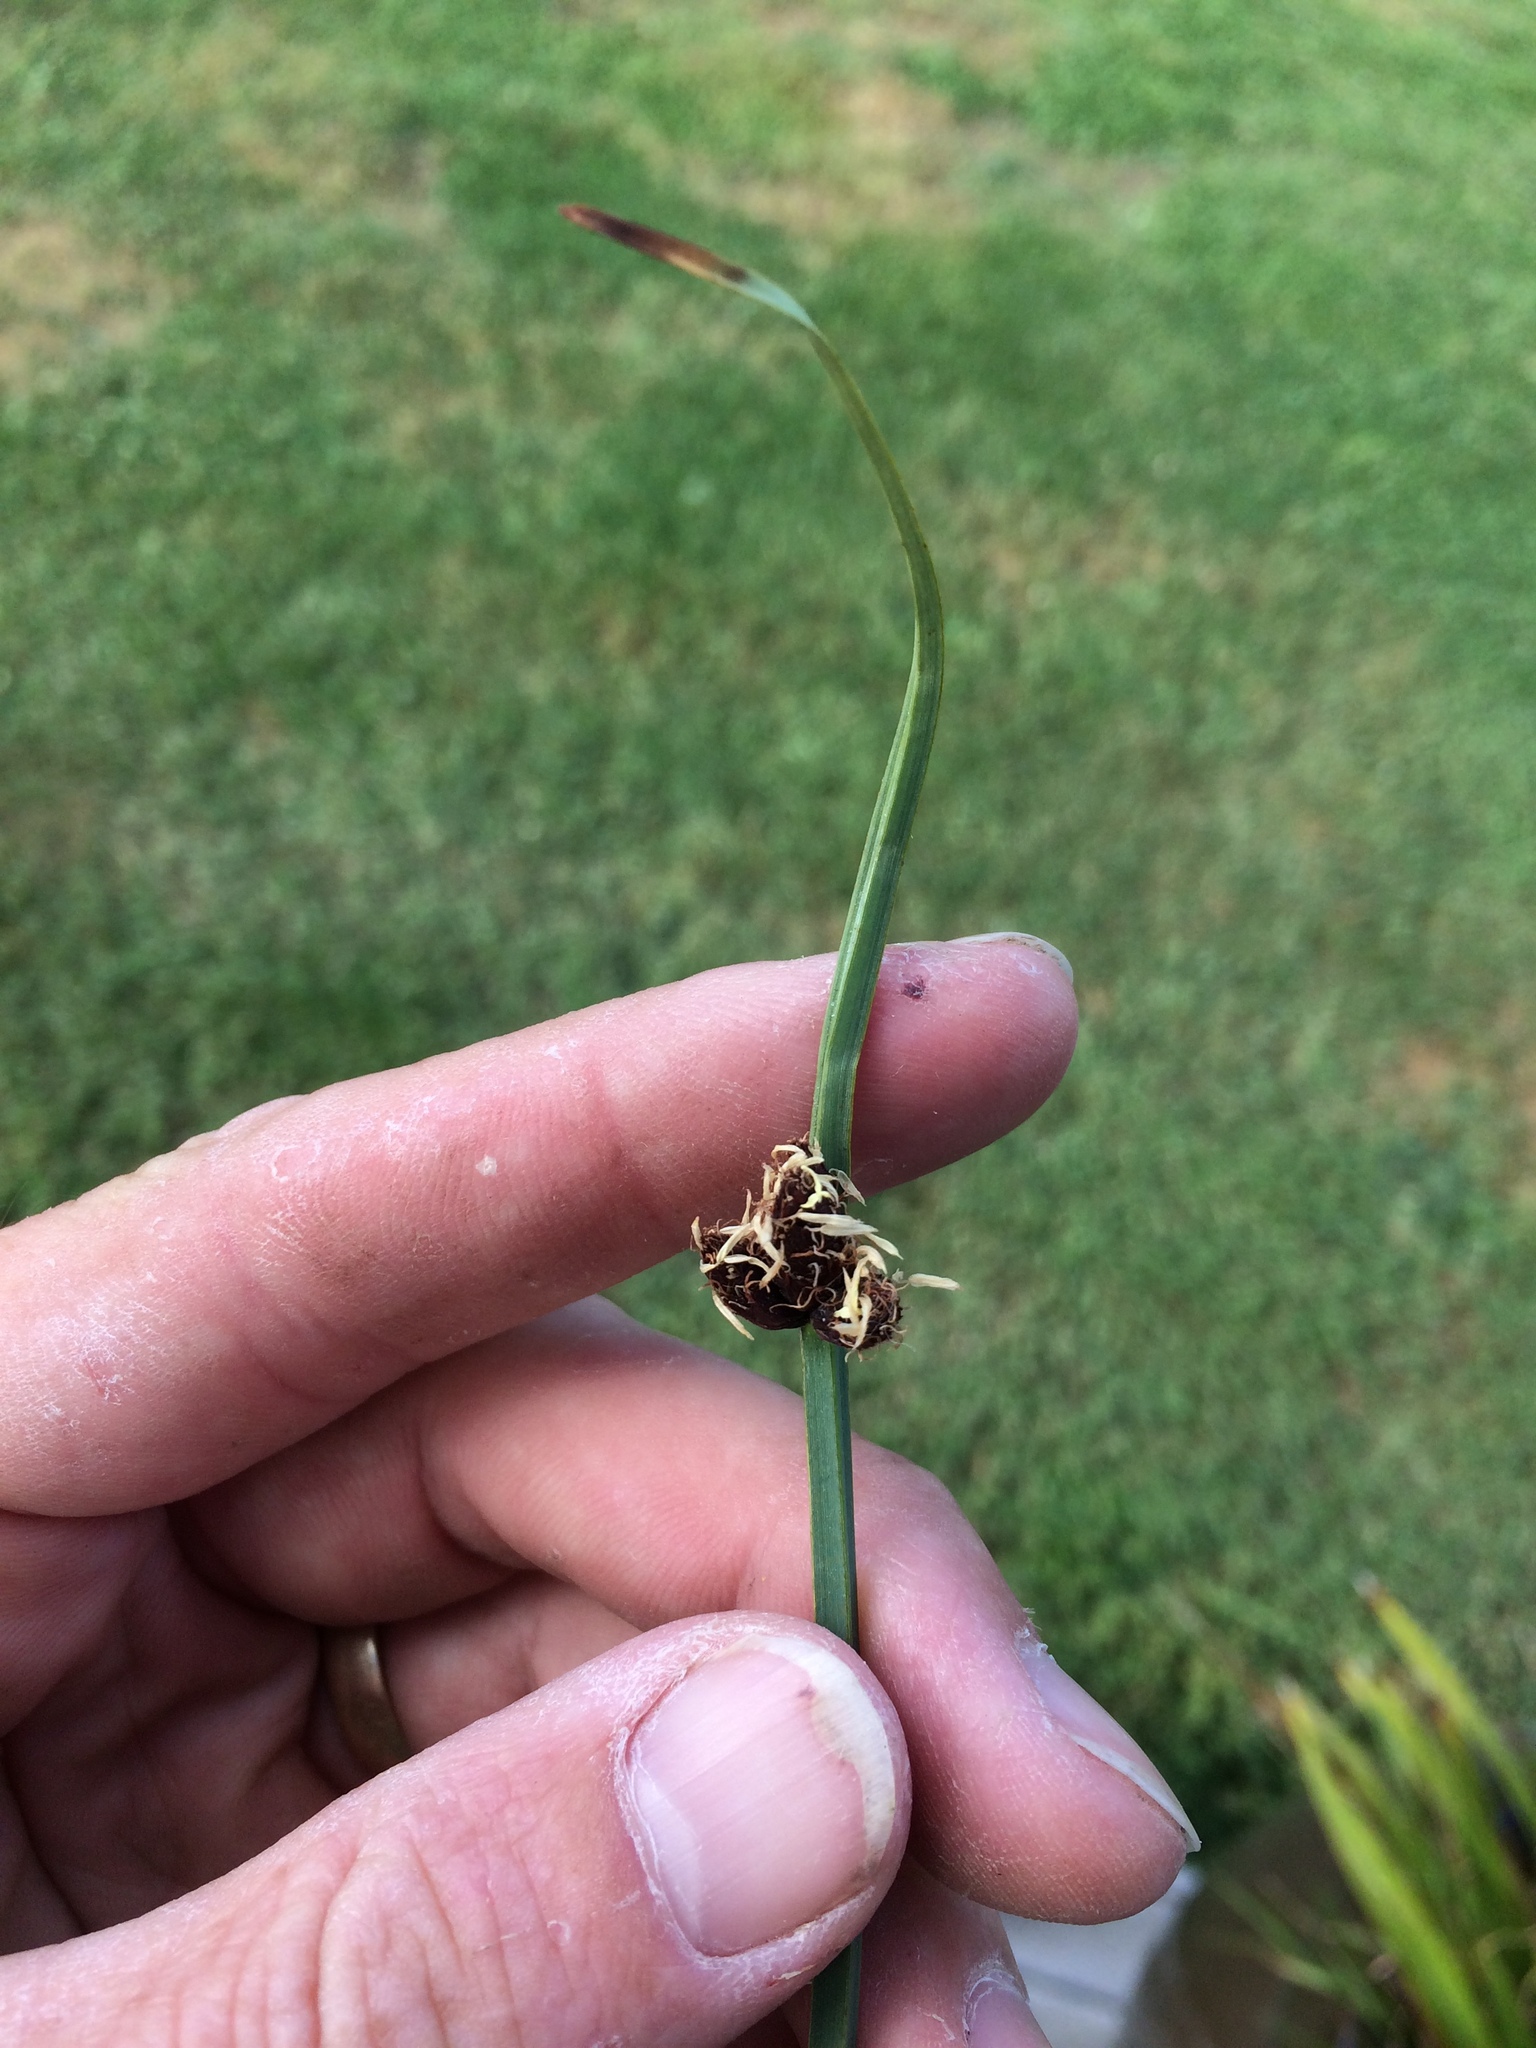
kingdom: Plantae
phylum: Tracheophyta
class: Liliopsida
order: Poales
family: Cyperaceae
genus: Schoenoplectus
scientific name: Schoenoplectus pungens
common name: Sharp club-rush
